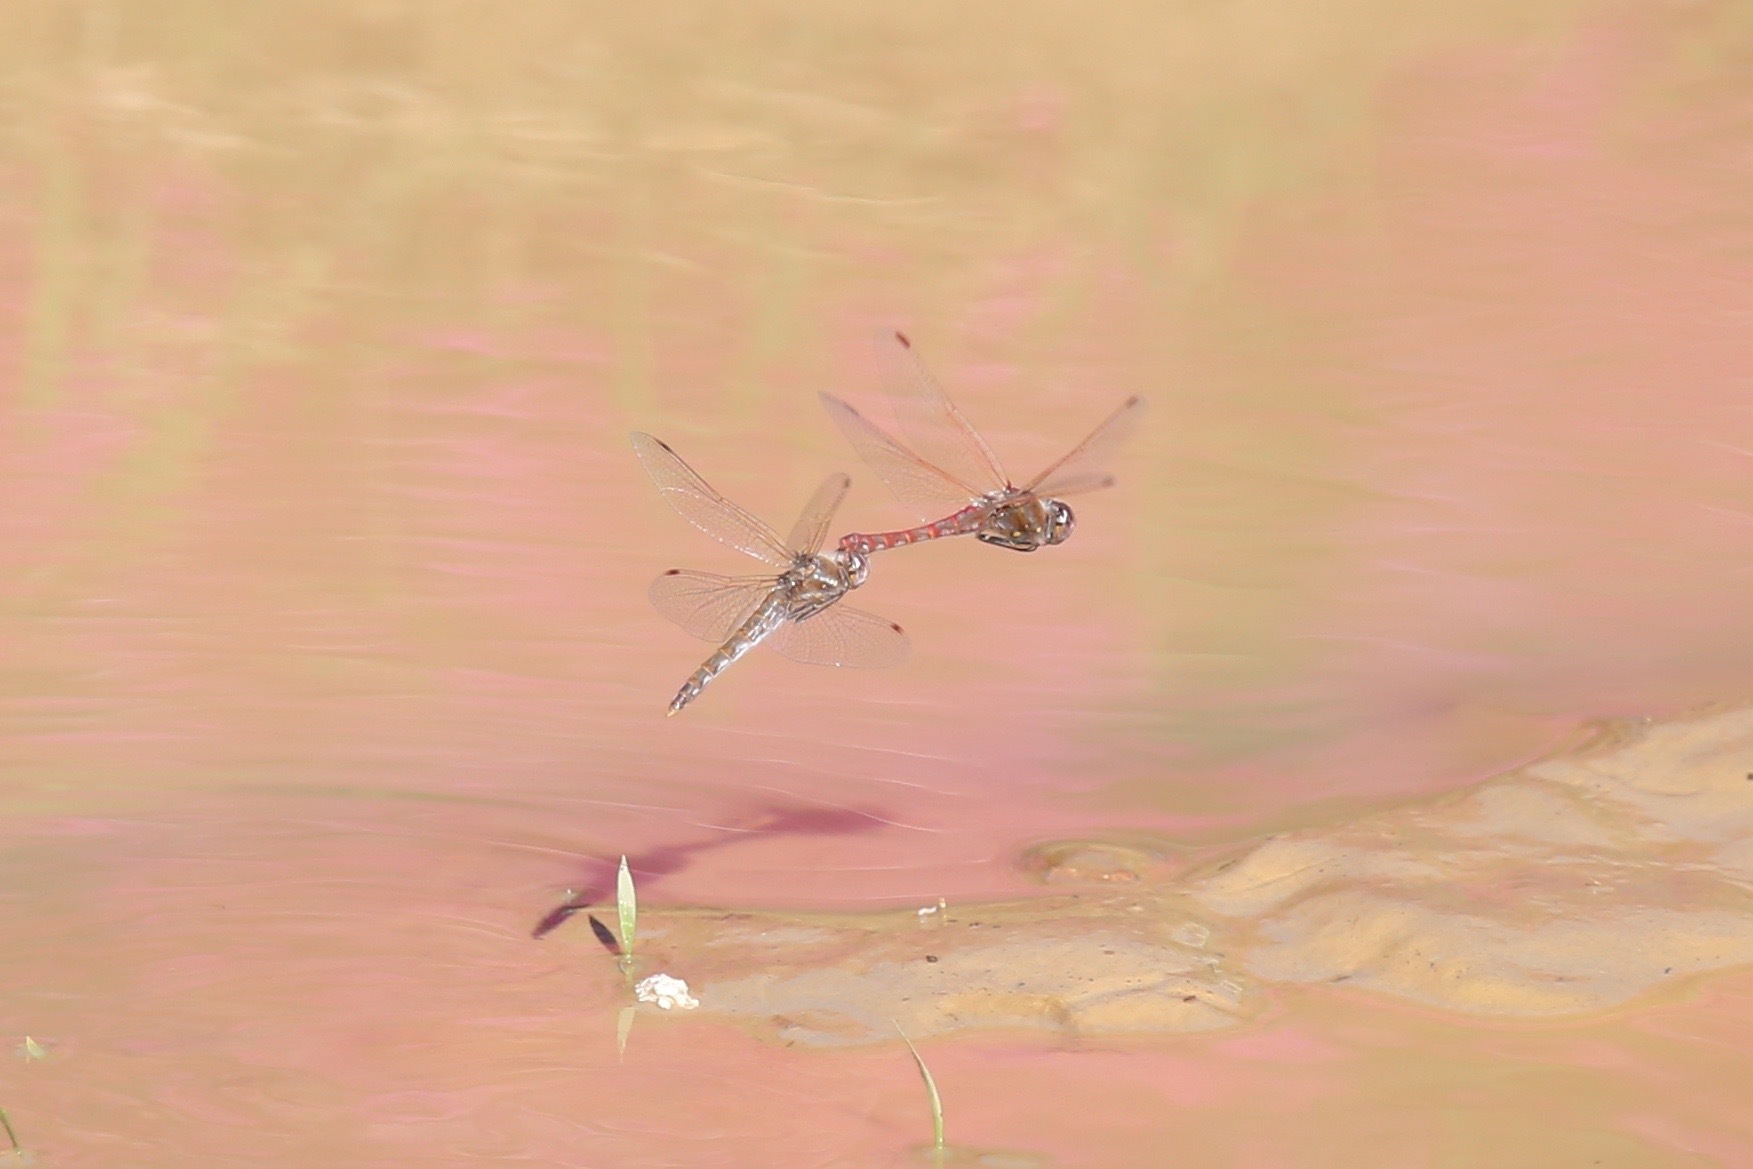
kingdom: Animalia
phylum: Arthropoda
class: Insecta
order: Odonata
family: Libellulidae
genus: Sympetrum
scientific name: Sympetrum corruptum
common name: Variegated meadowhawk
